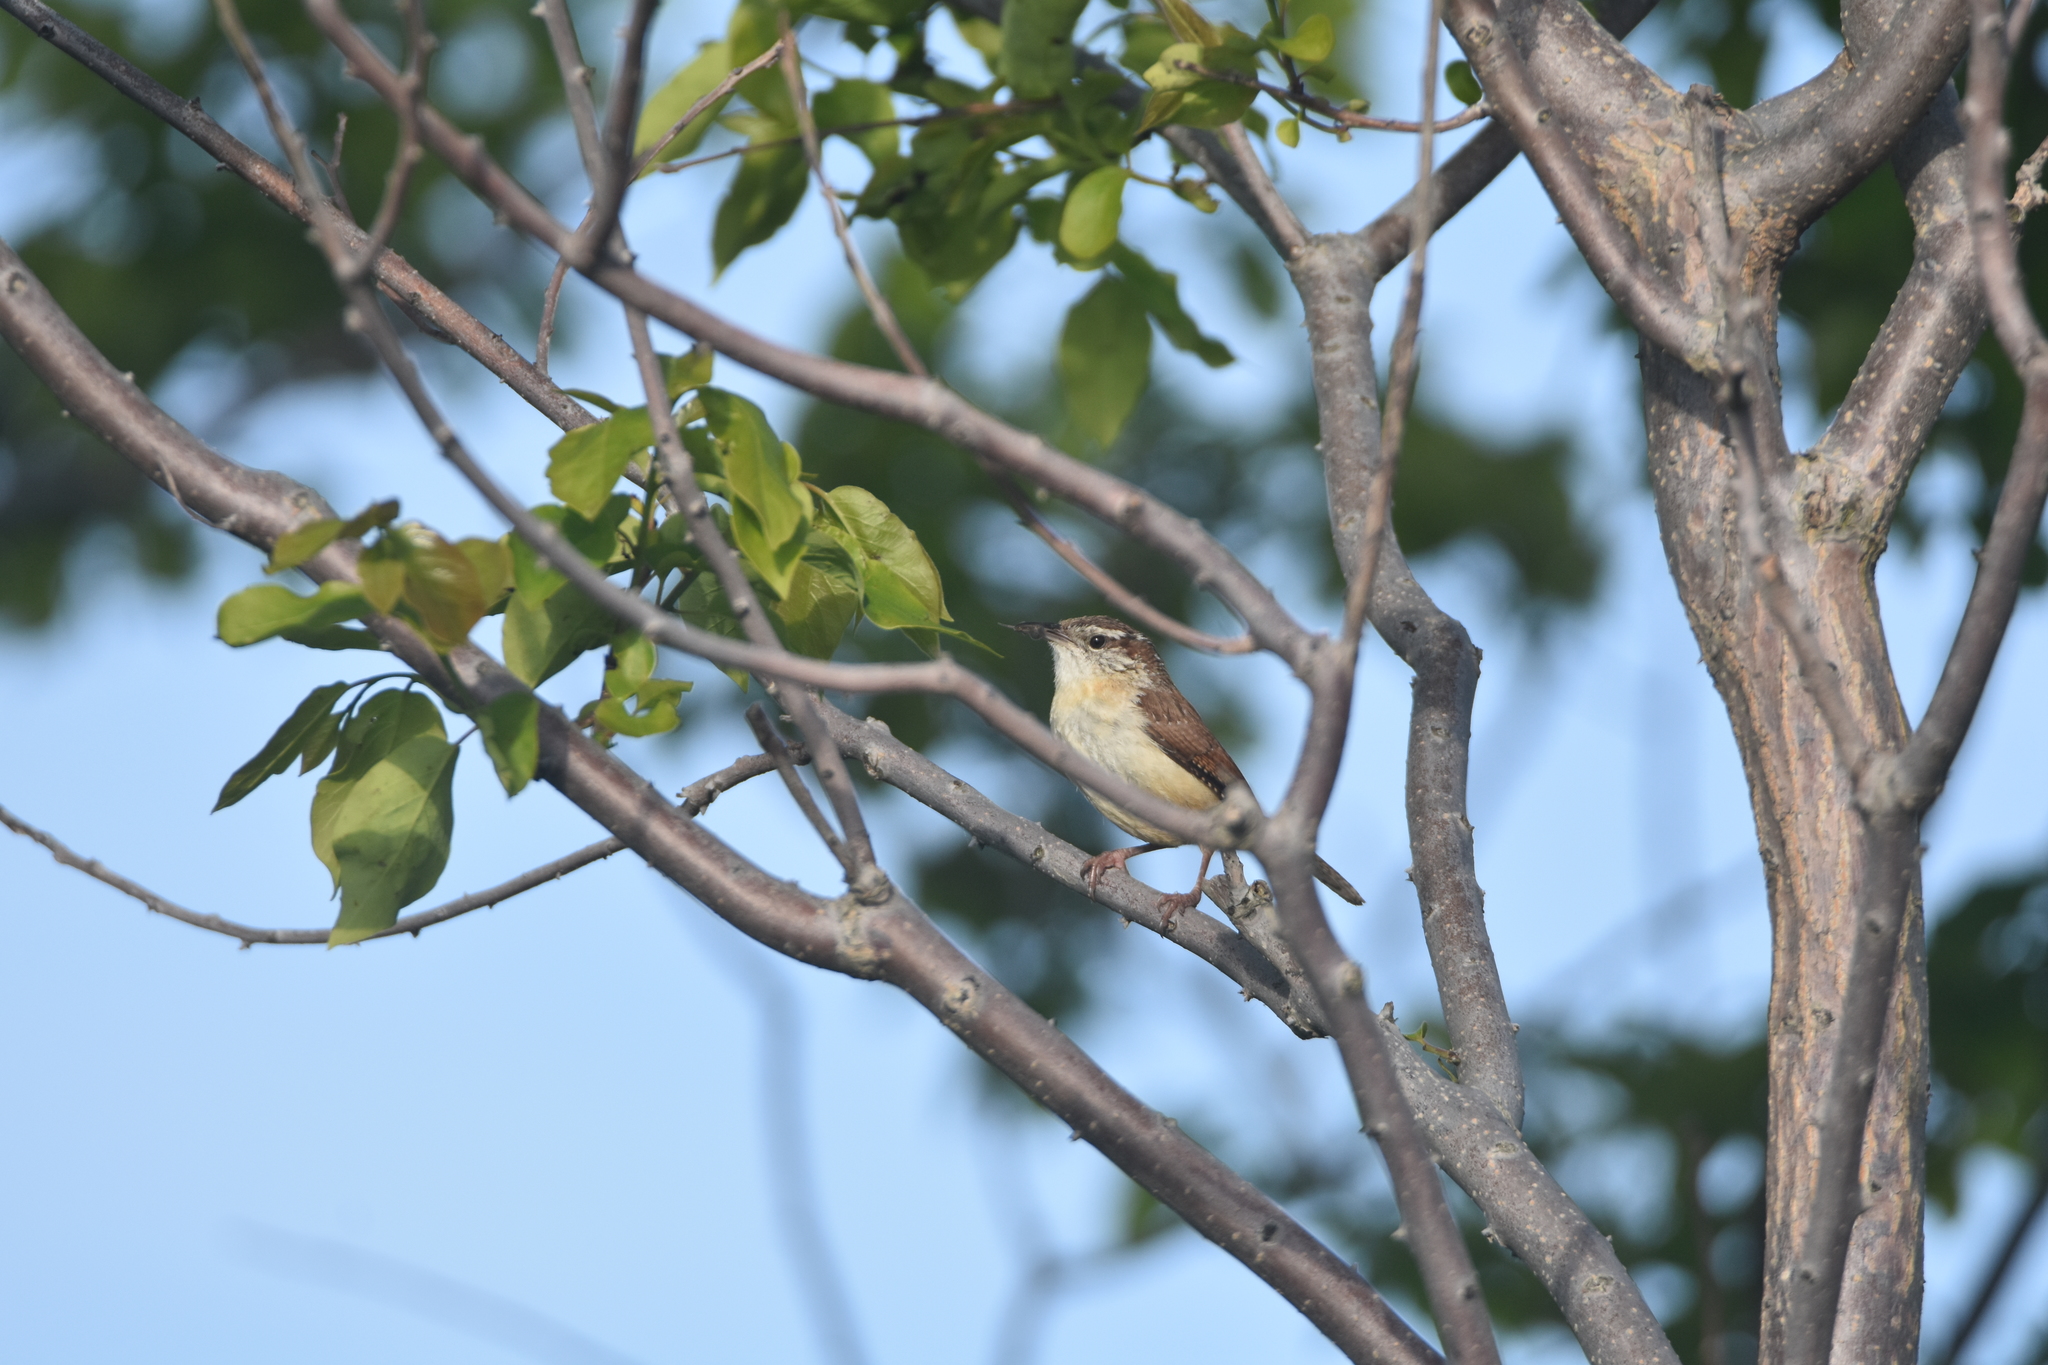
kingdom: Animalia
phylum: Chordata
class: Aves
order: Passeriformes
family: Troglodytidae
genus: Thryothorus
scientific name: Thryothorus ludovicianus
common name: Carolina wren
